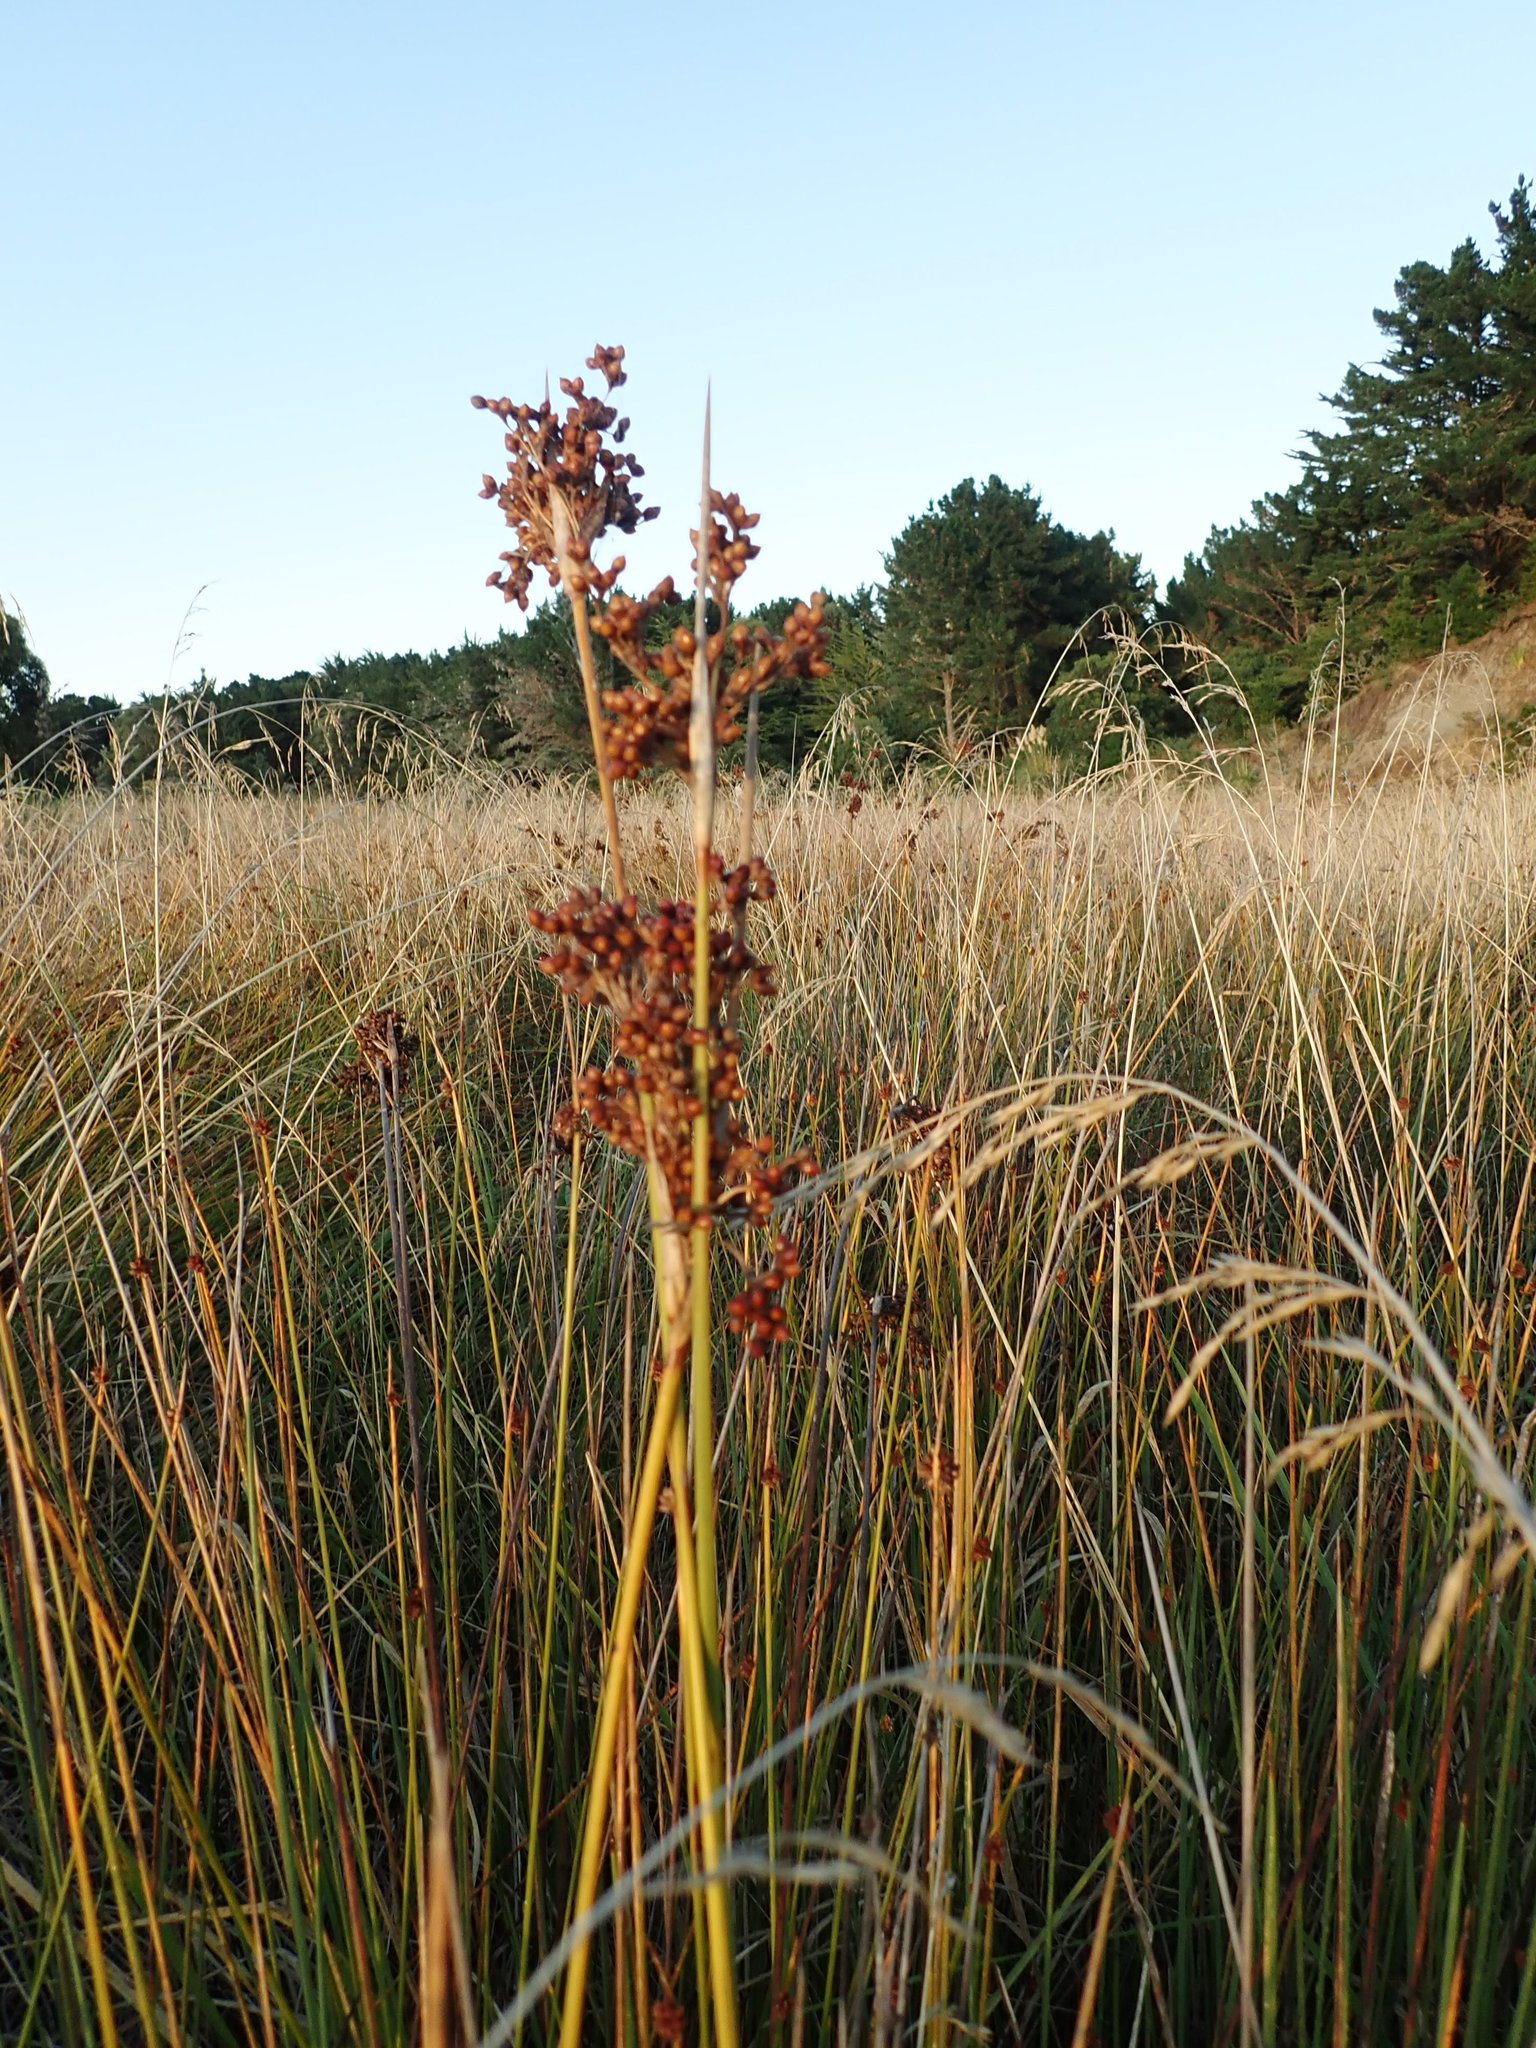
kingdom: Plantae
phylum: Tracheophyta
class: Liliopsida
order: Poales
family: Juncaceae
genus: Juncus
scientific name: Juncus acutus
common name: Sharp rush
